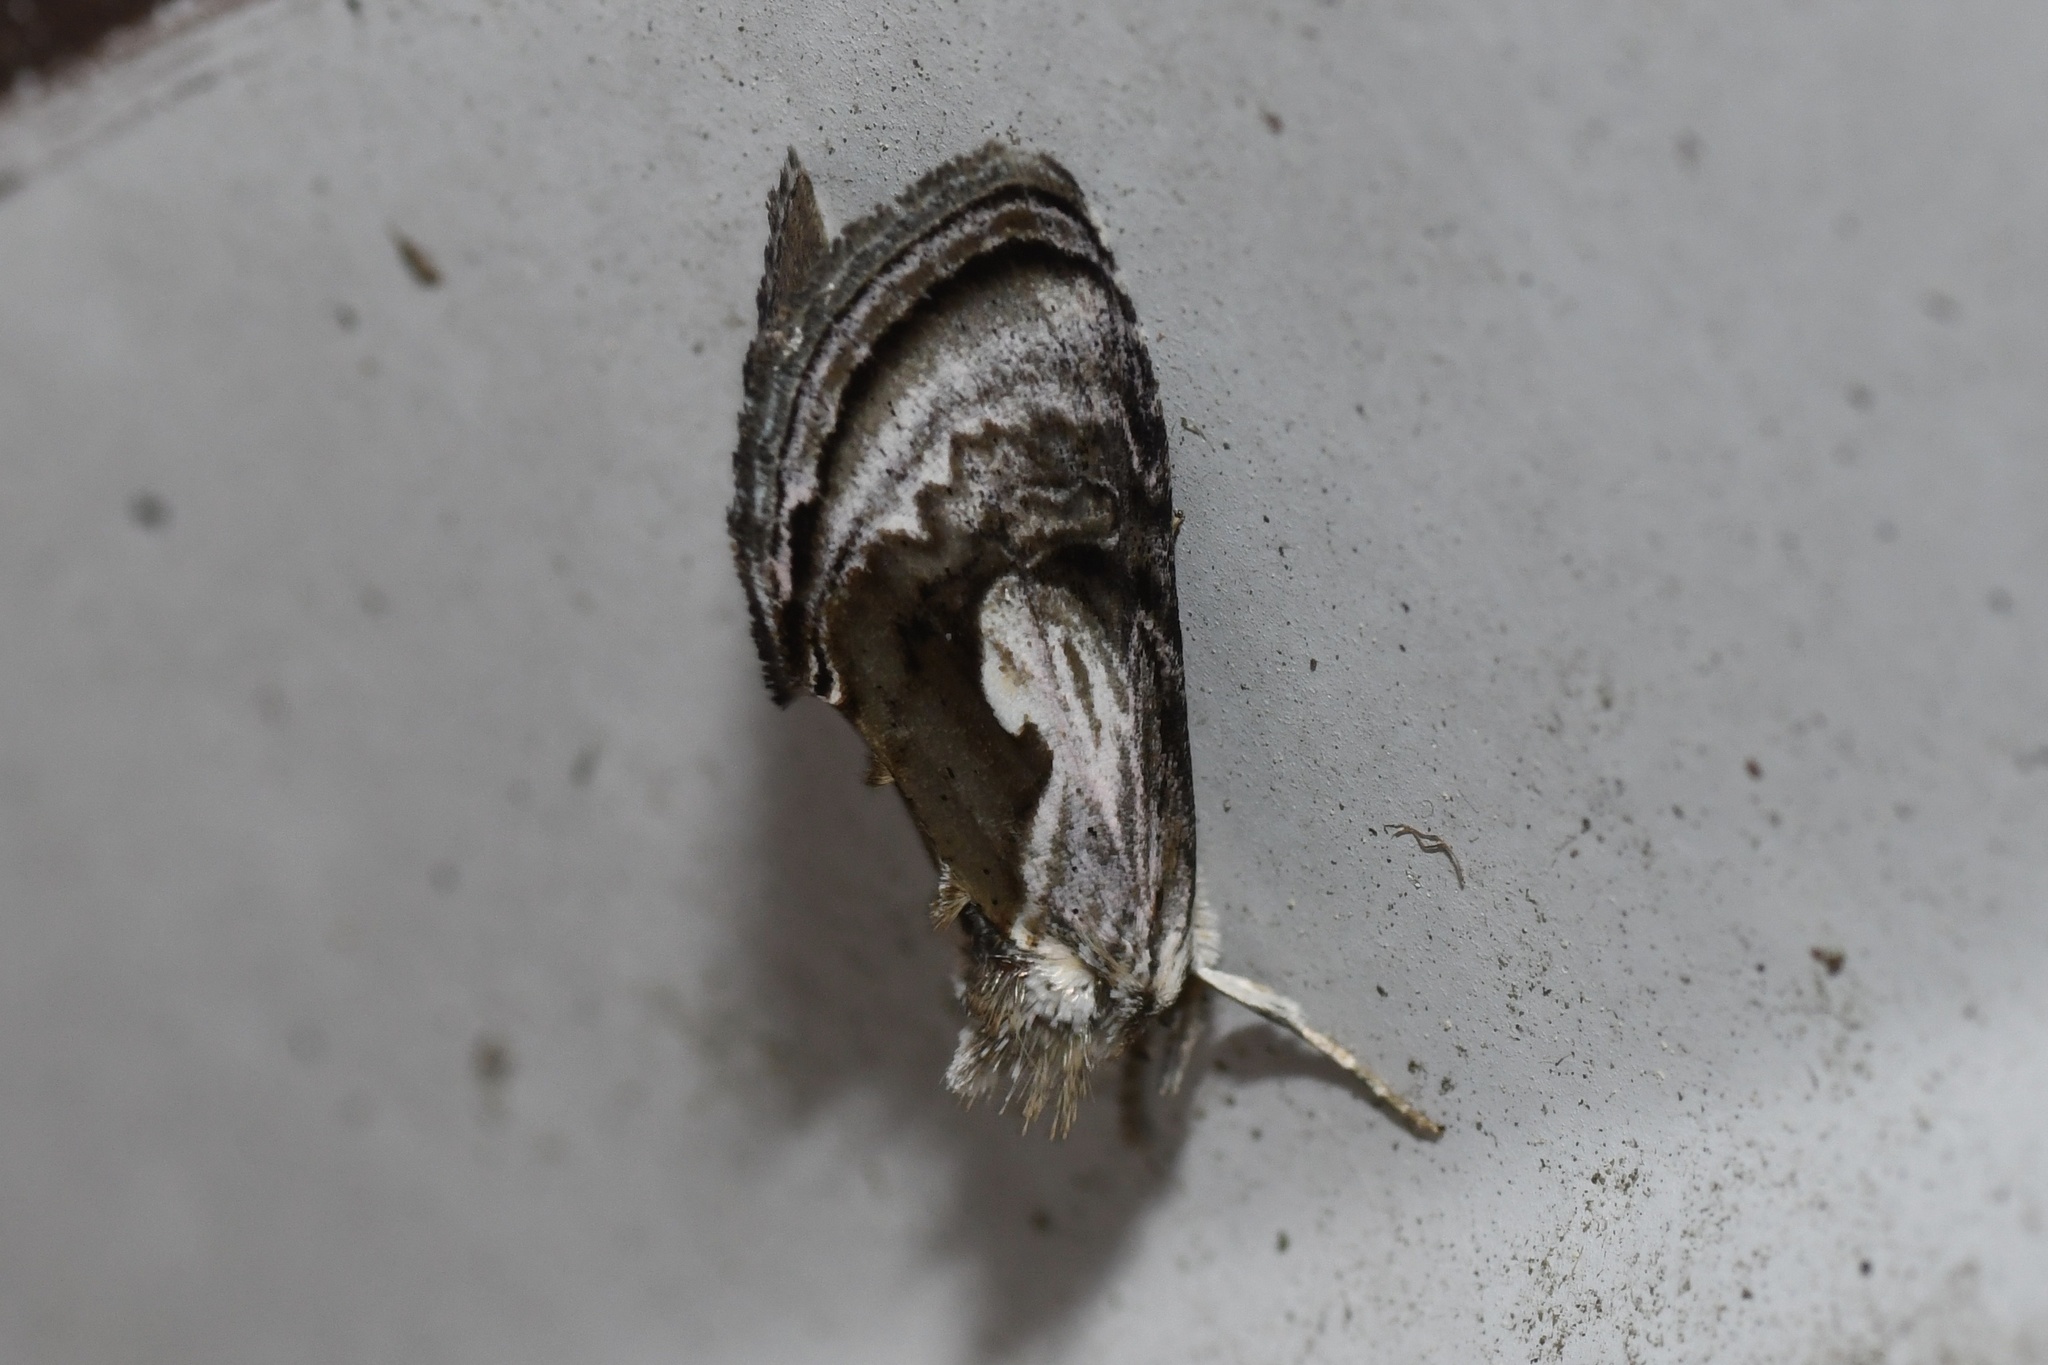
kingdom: Animalia
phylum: Arthropoda
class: Insecta
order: Lepidoptera
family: Noctuidae
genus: Chrysanympha
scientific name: Chrysanympha formosa
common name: Formosa looper moth
